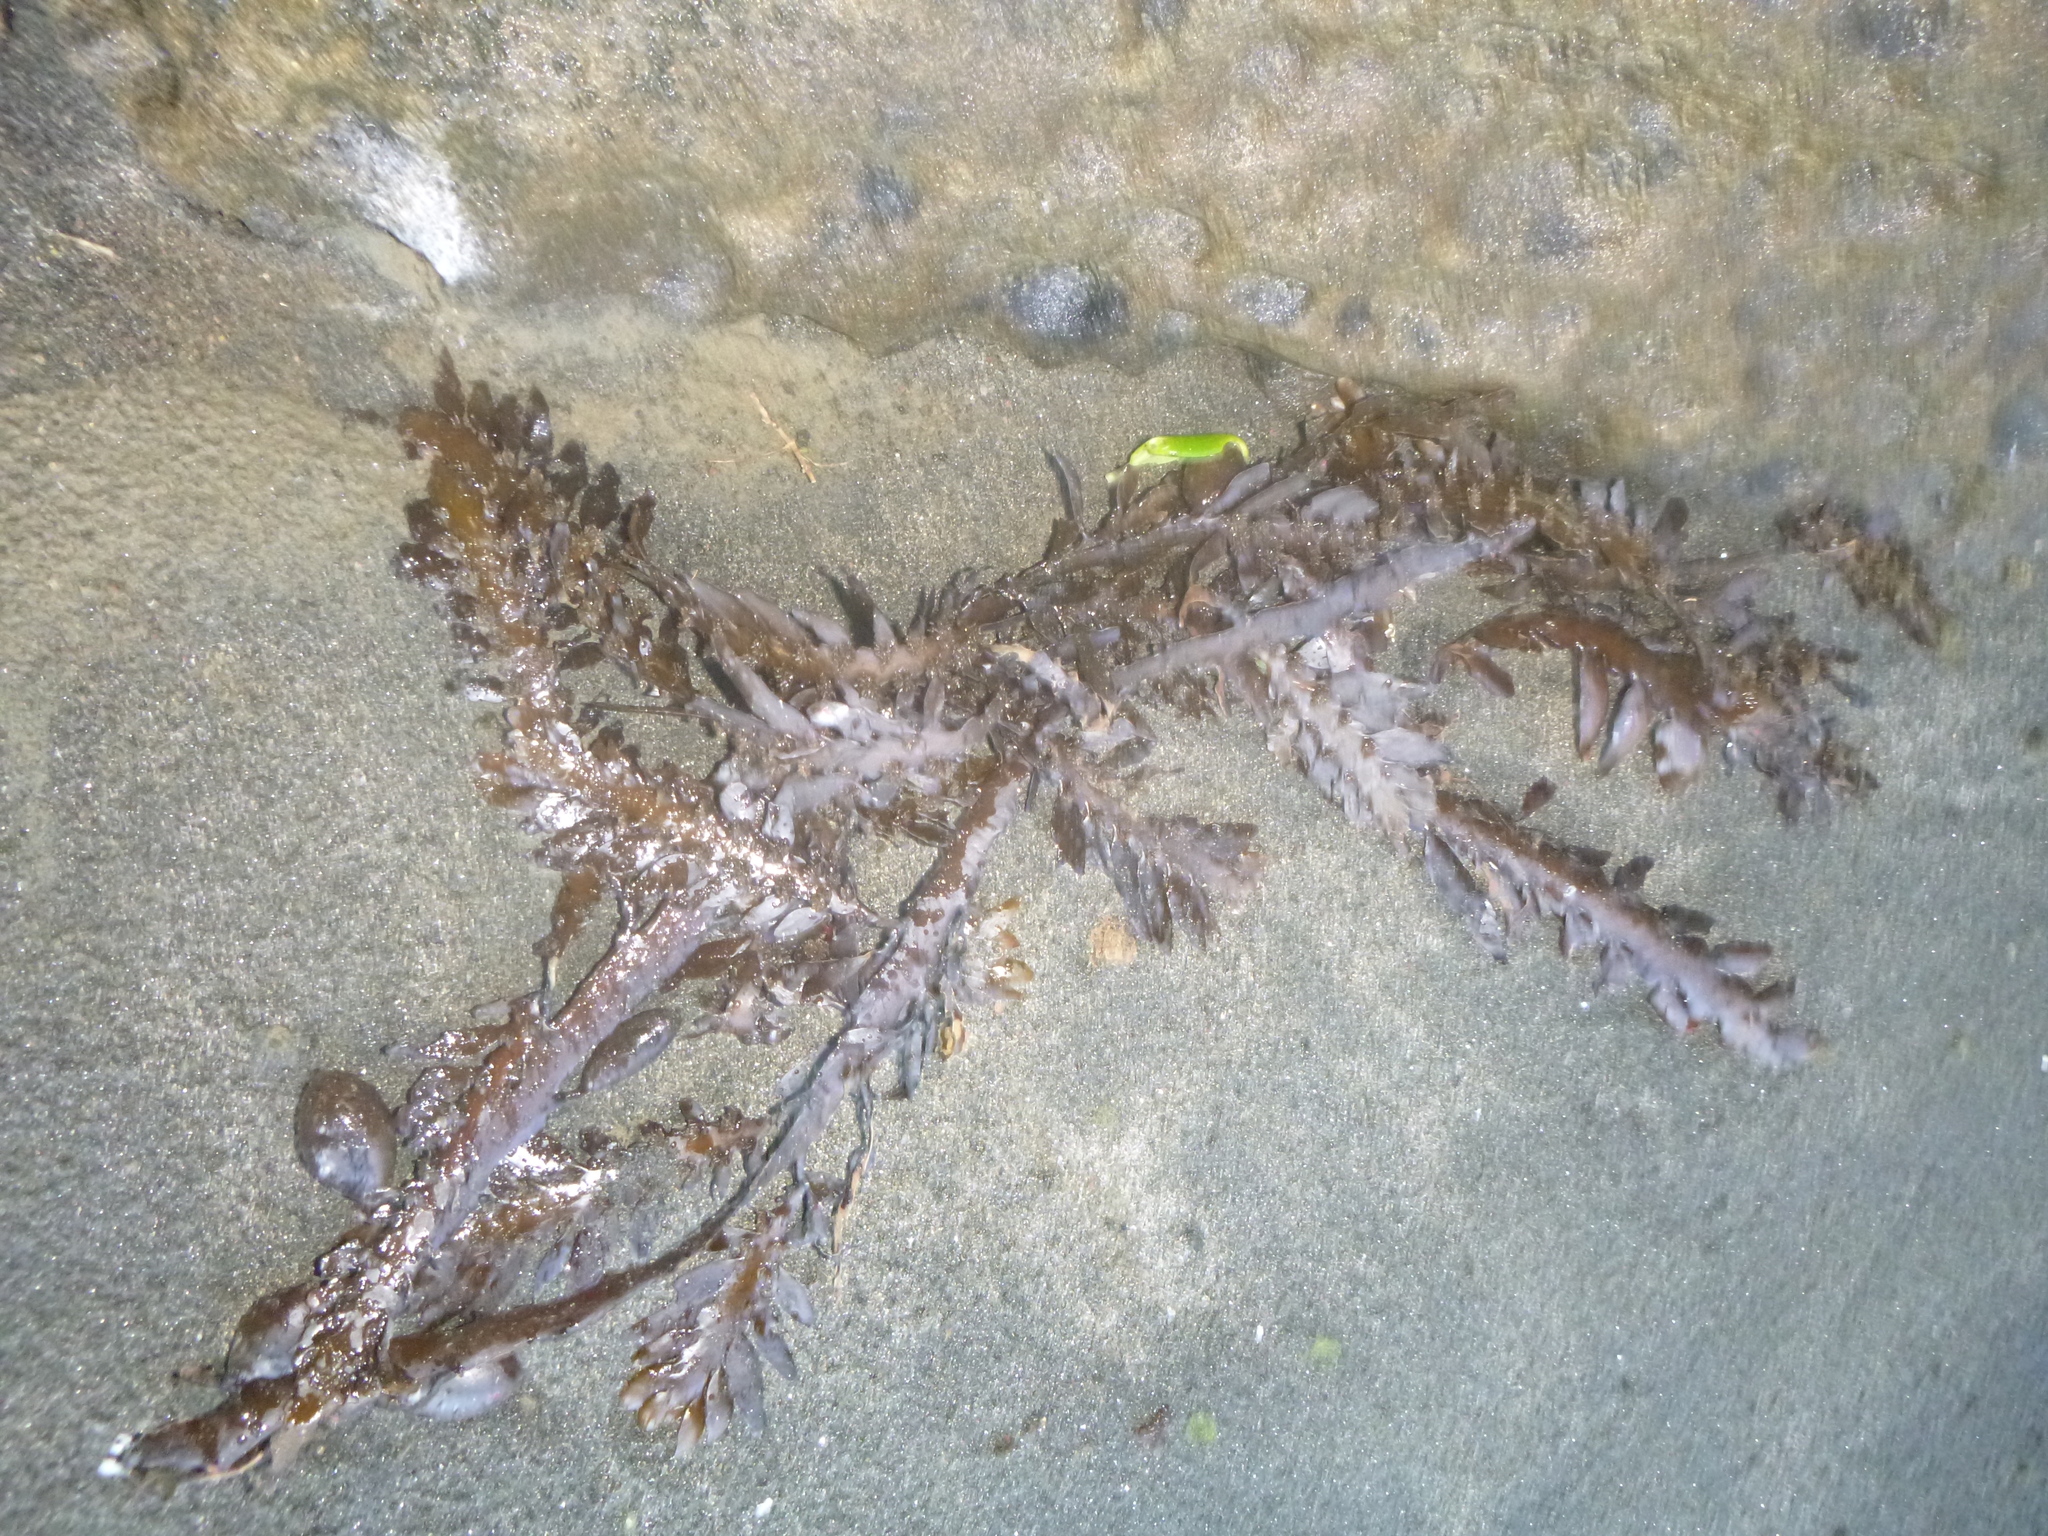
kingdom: Chromista
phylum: Ochrophyta
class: Phaeophyceae
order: Fucales
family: Sargassaceae
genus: Carpophyllum
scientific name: Carpophyllum maschalocarpum
